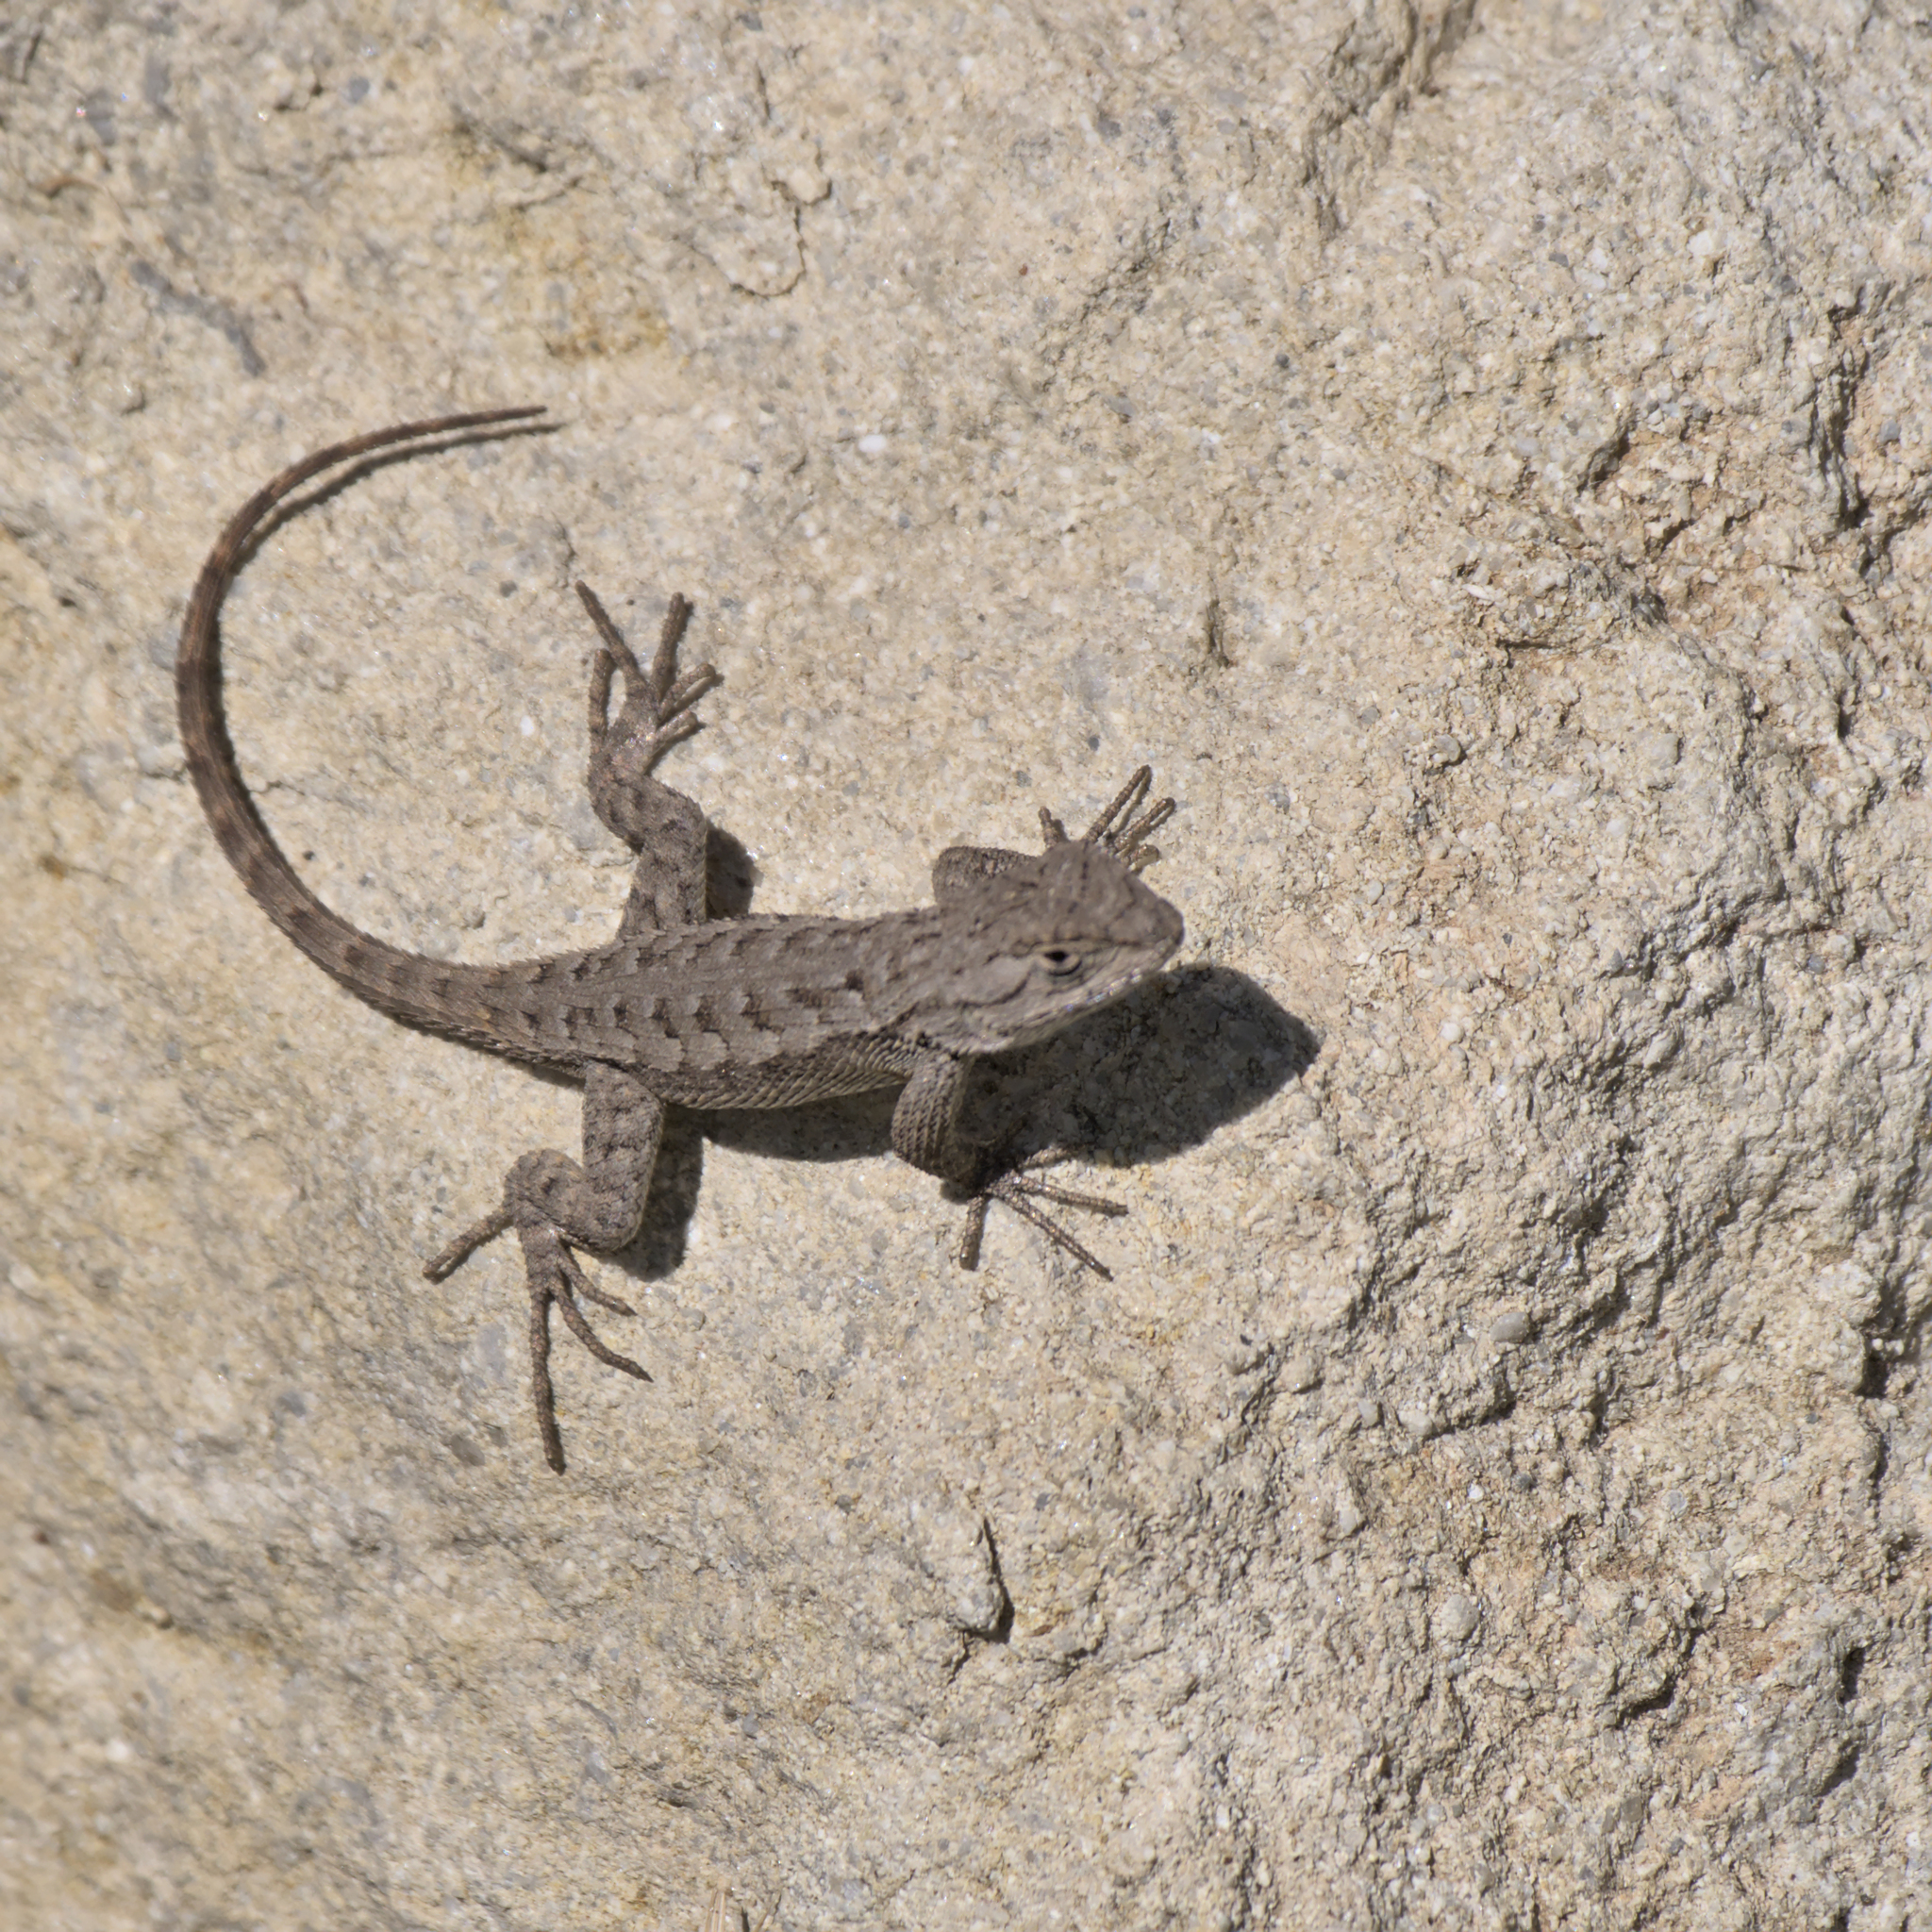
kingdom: Animalia
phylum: Chordata
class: Squamata
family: Phrynosomatidae
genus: Sceloporus
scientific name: Sceloporus occidentalis
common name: Western fence lizard
